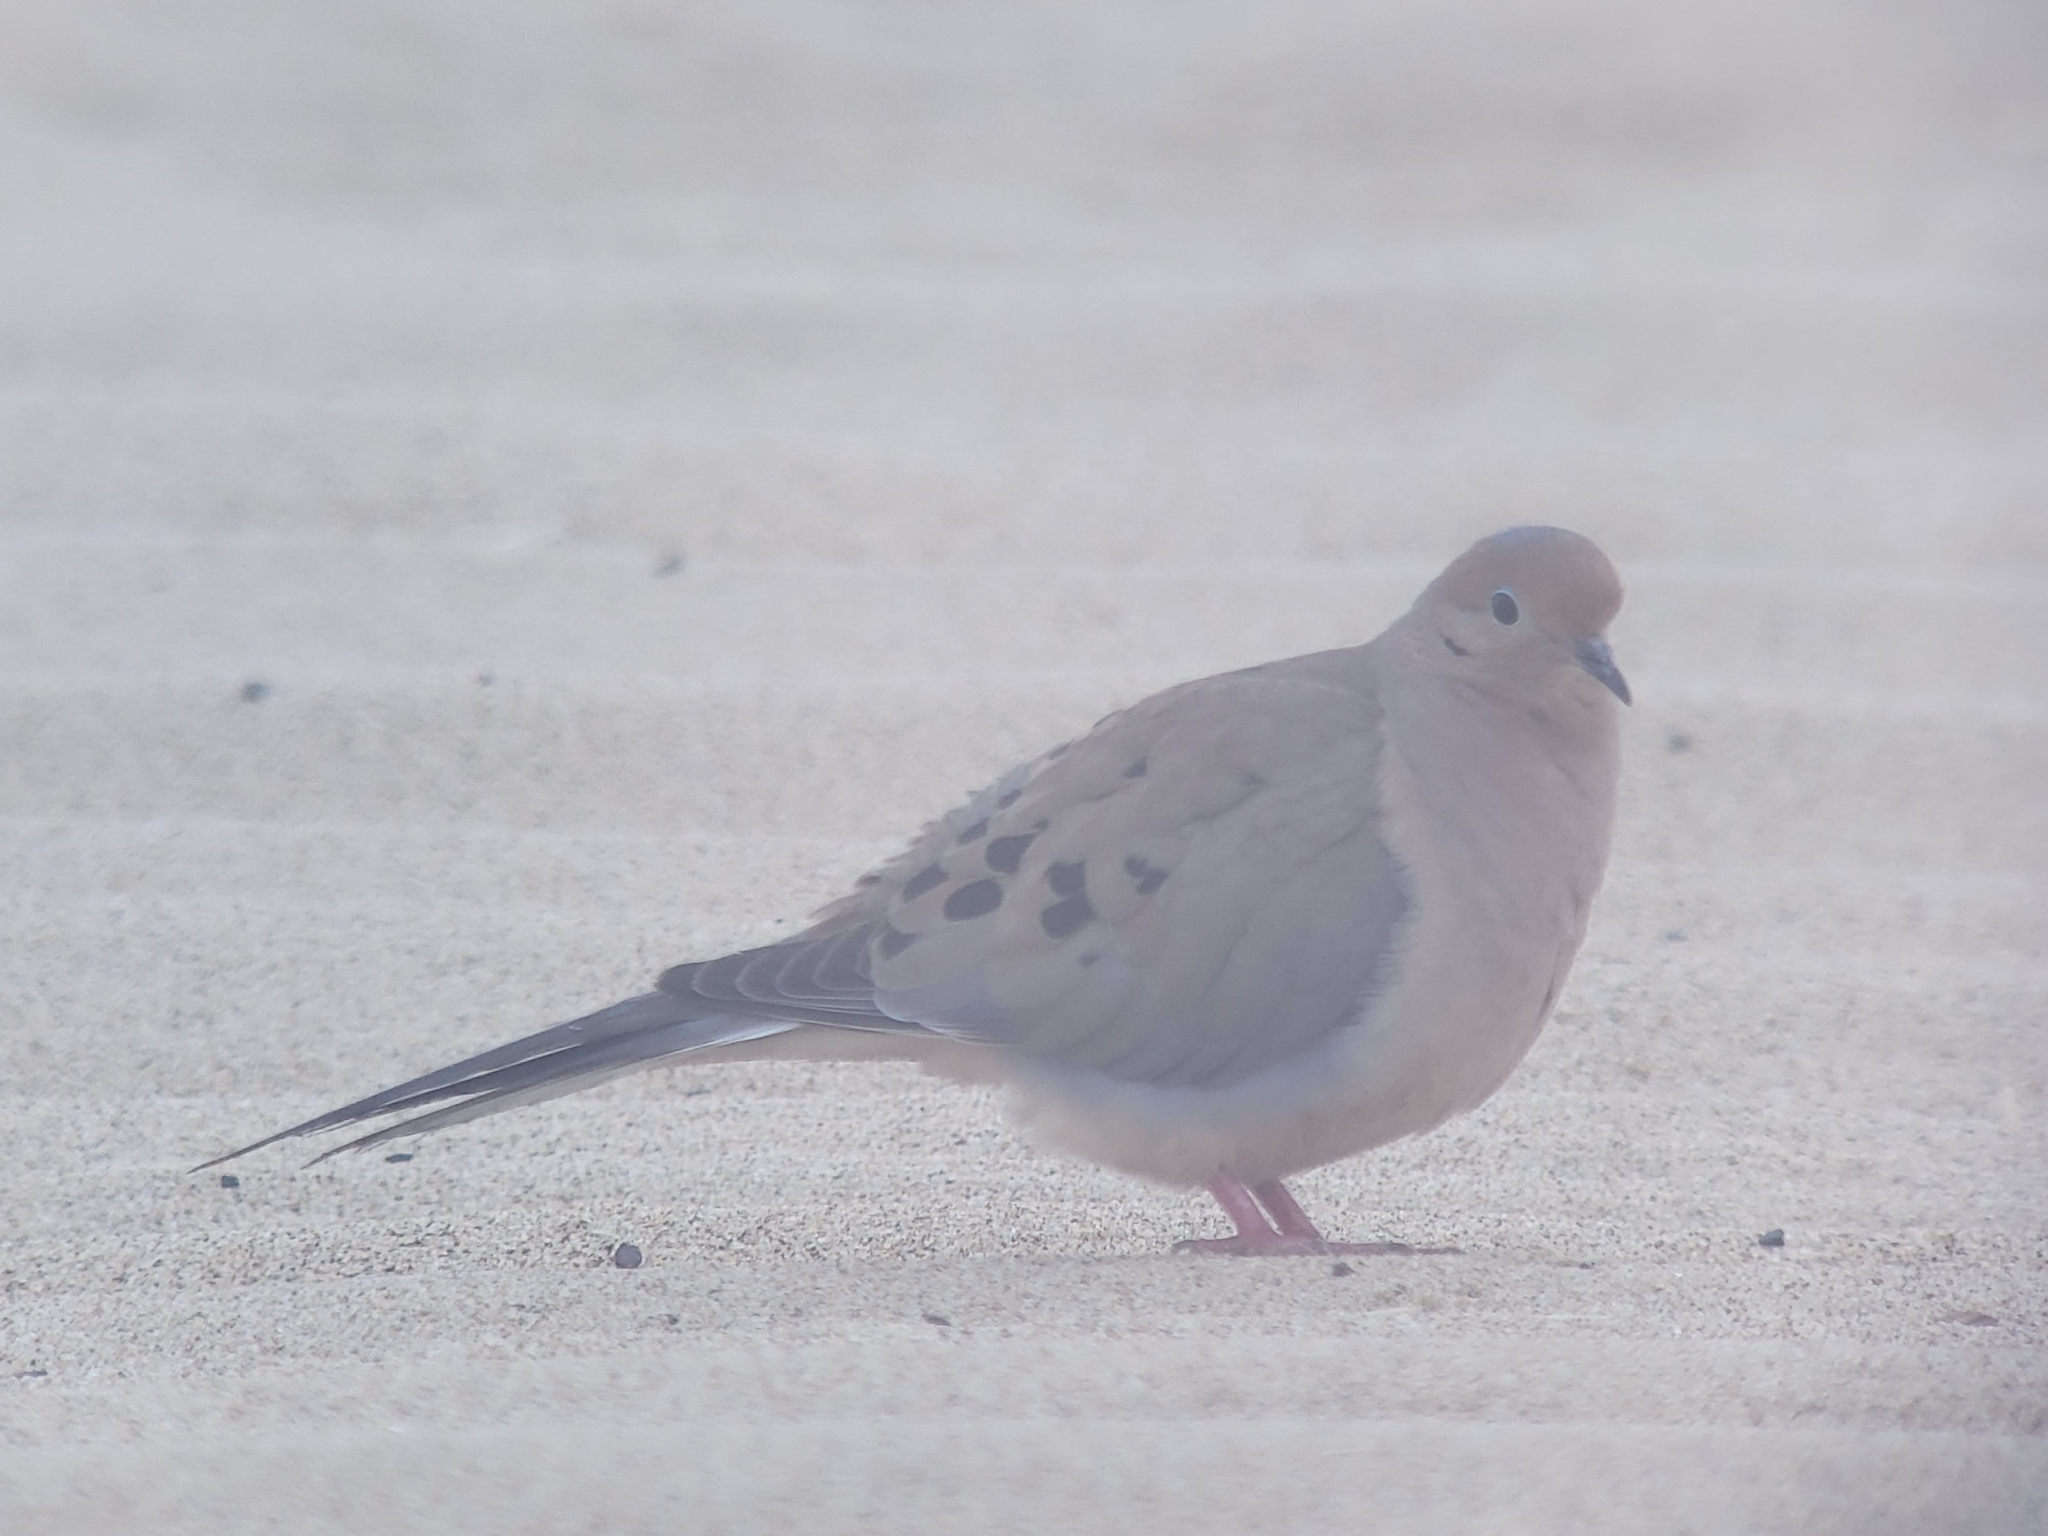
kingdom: Animalia
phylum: Chordata
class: Aves
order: Columbiformes
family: Columbidae
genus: Zenaida
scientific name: Zenaida macroura
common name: Mourning dove
